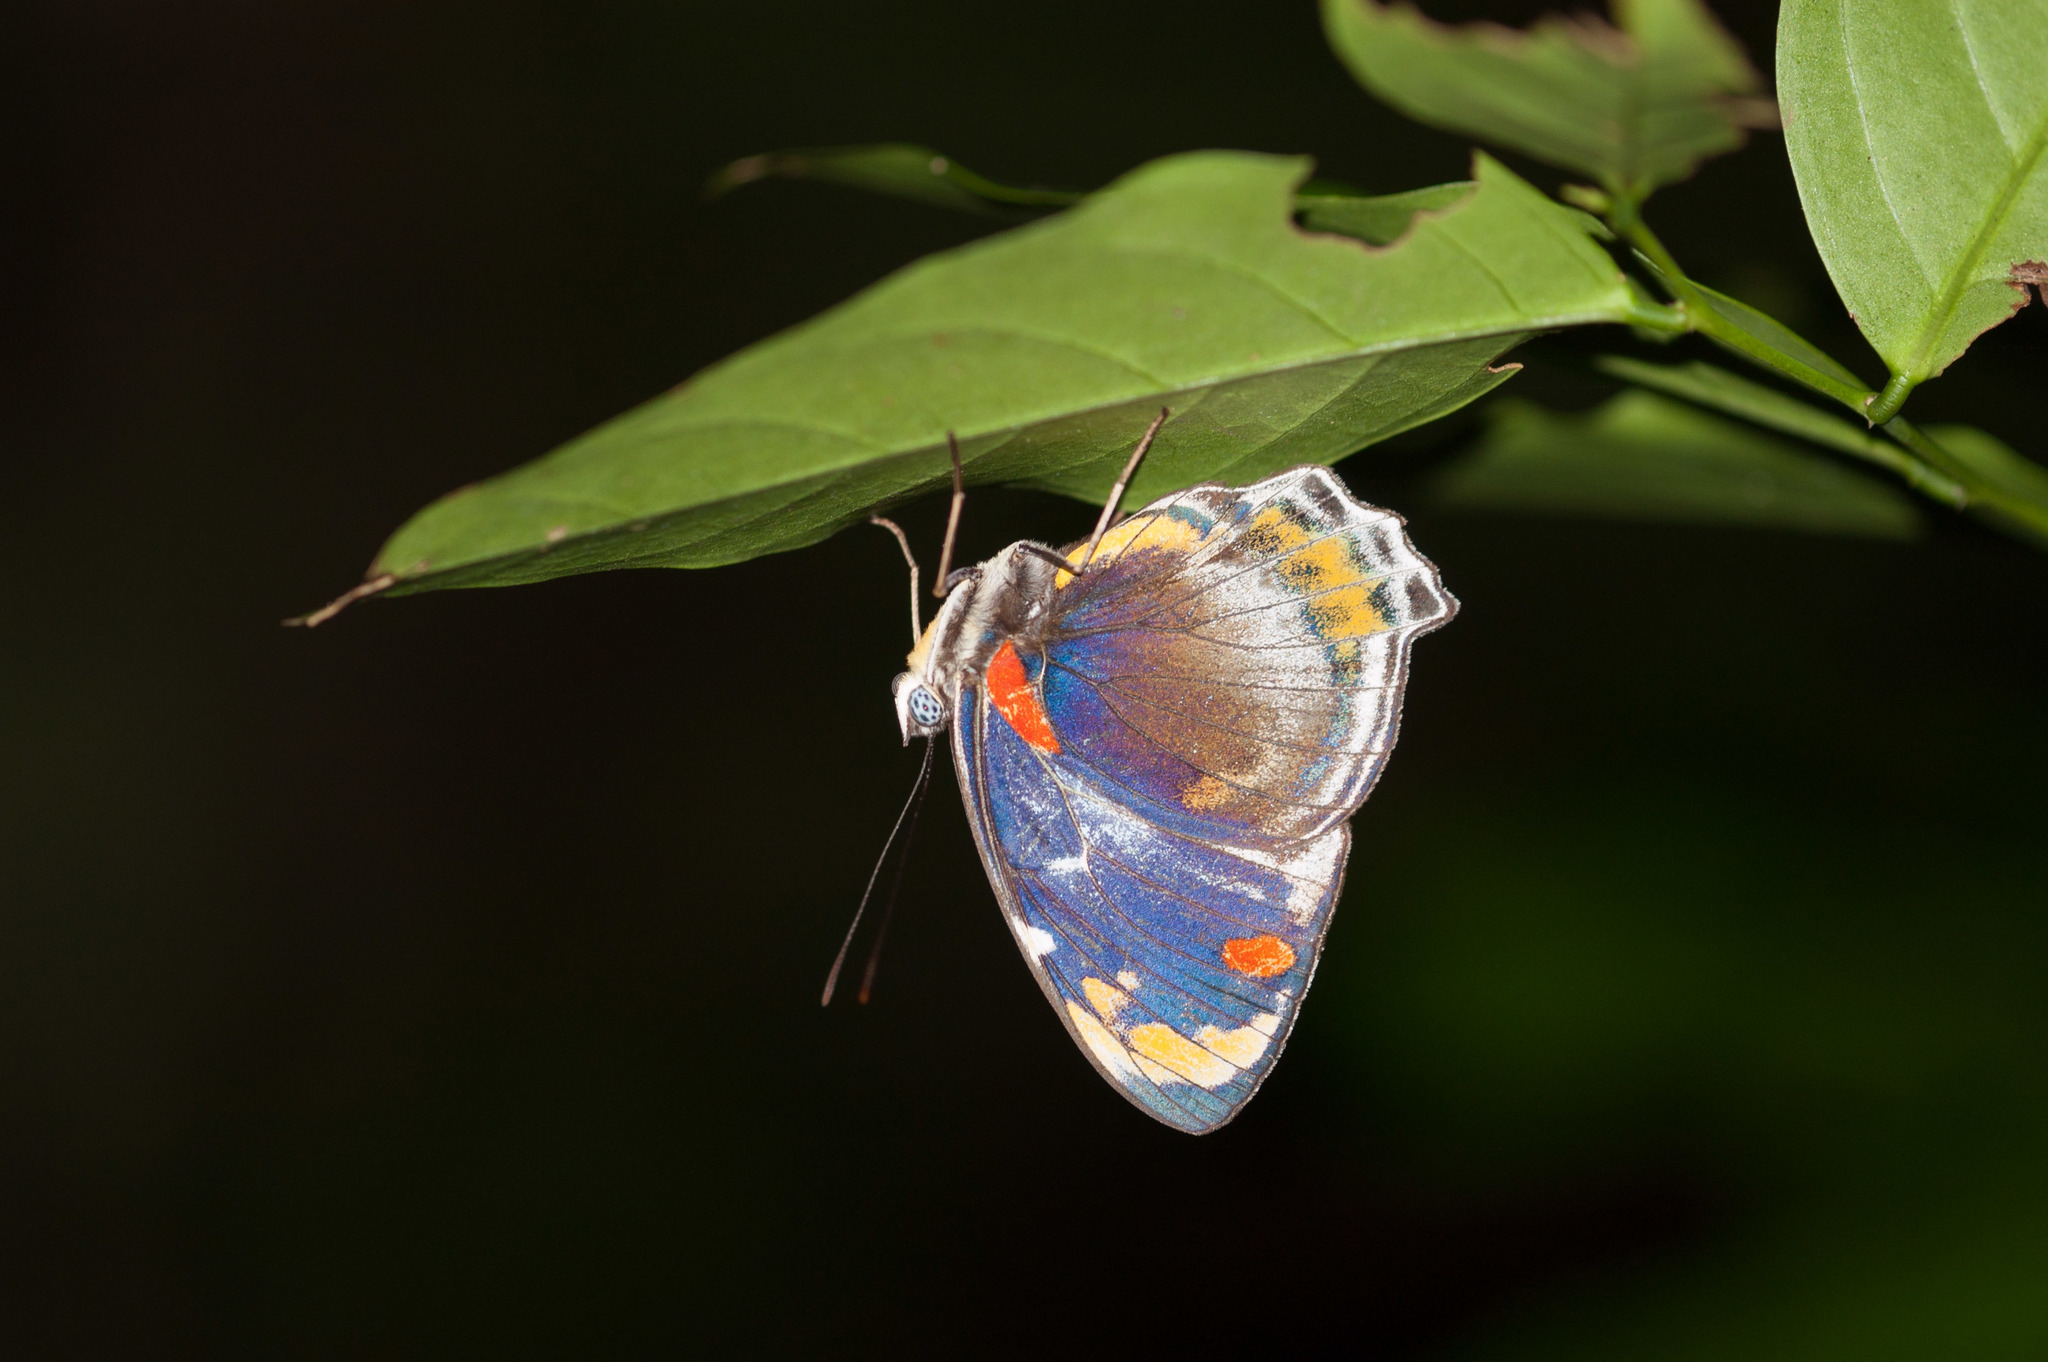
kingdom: Animalia
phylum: Arthropoda
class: Insecta
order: Lepidoptera
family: Nymphalidae
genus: Mynes
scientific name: Mynes geoffroyi
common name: Jezebel nymph
